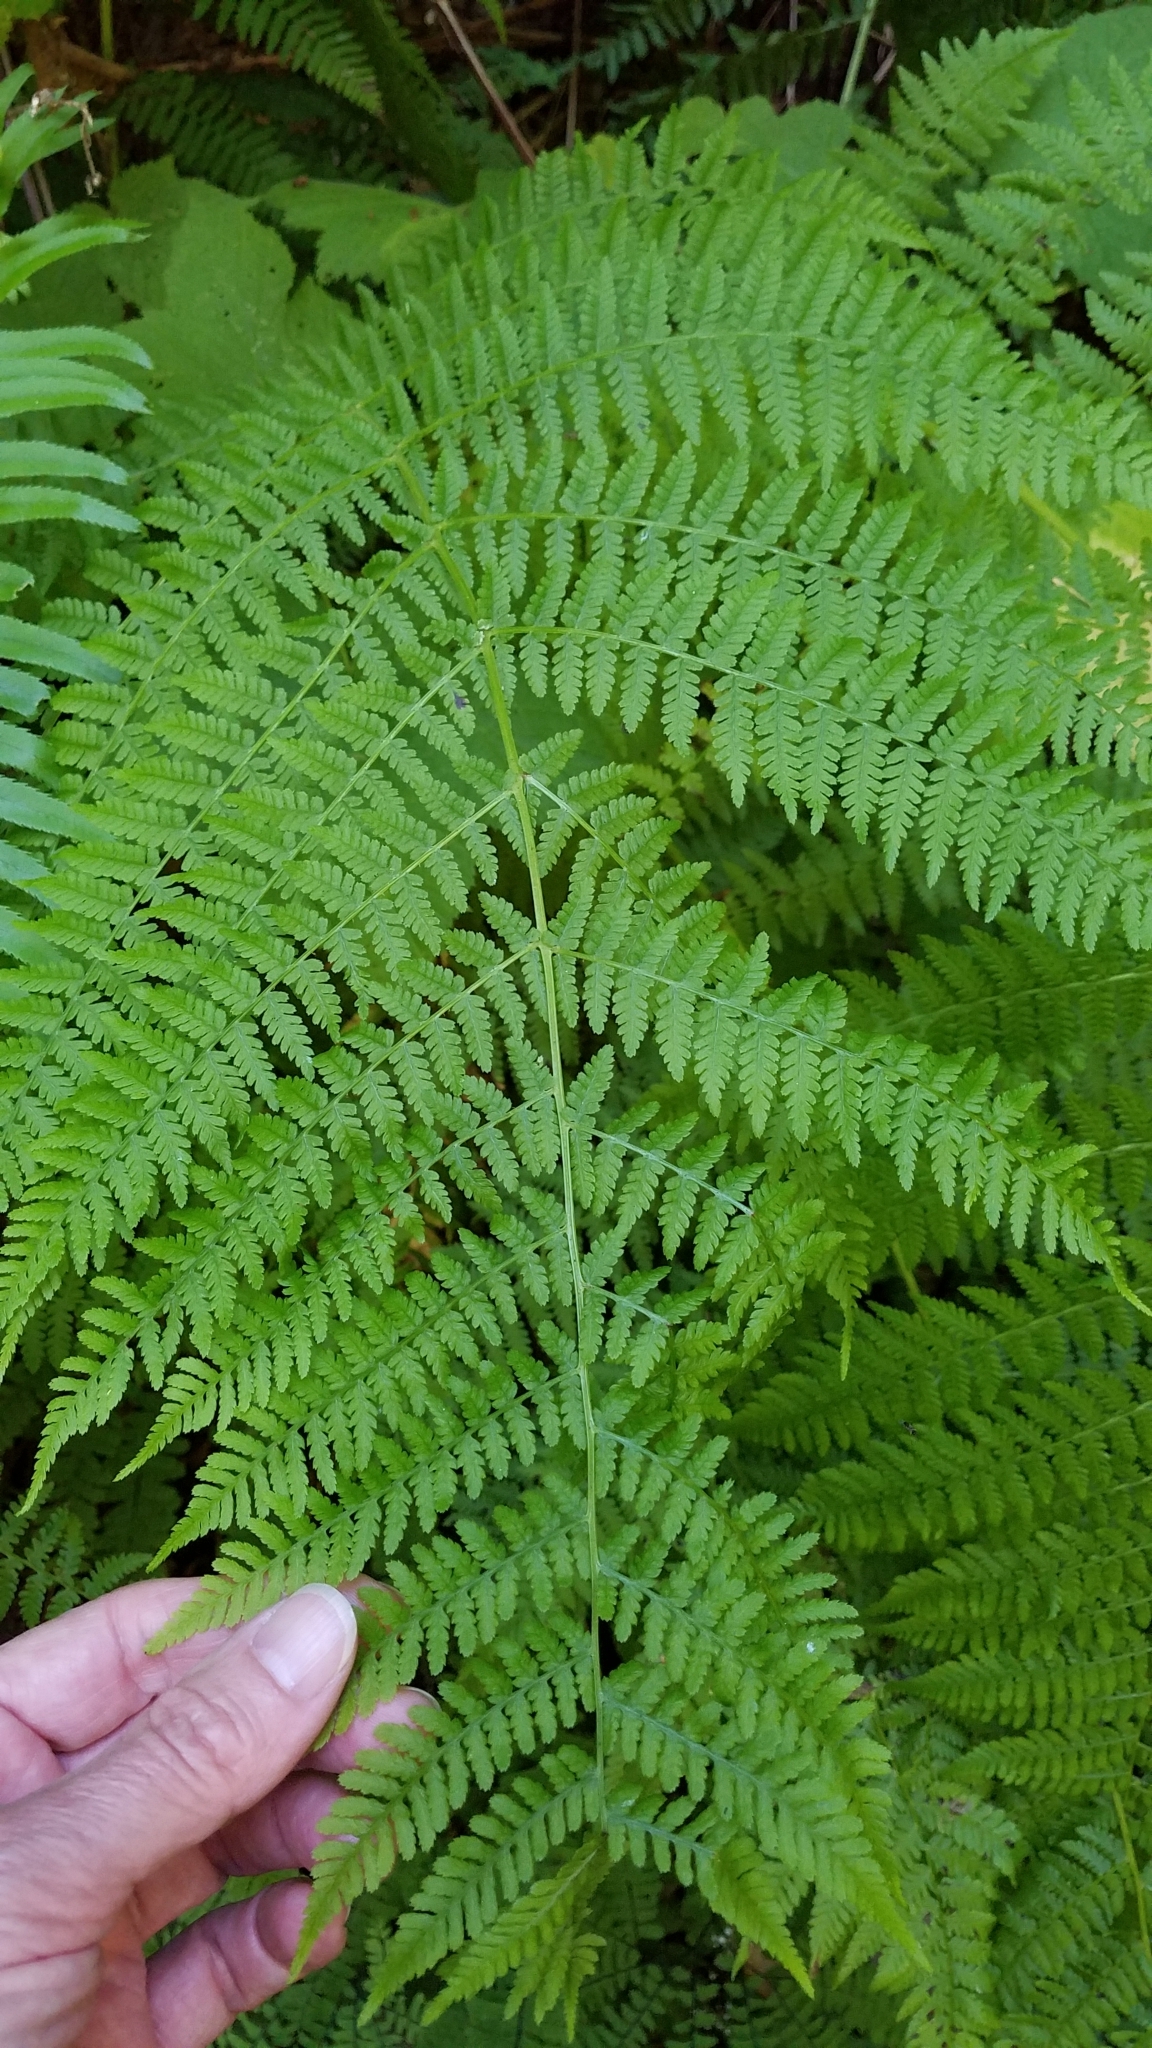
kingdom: Plantae
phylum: Tracheophyta
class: Polypodiopsida
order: Polypodiales
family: Athyriaceae
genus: Athyrium
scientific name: Athyrium filix-femina
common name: Lady fern
